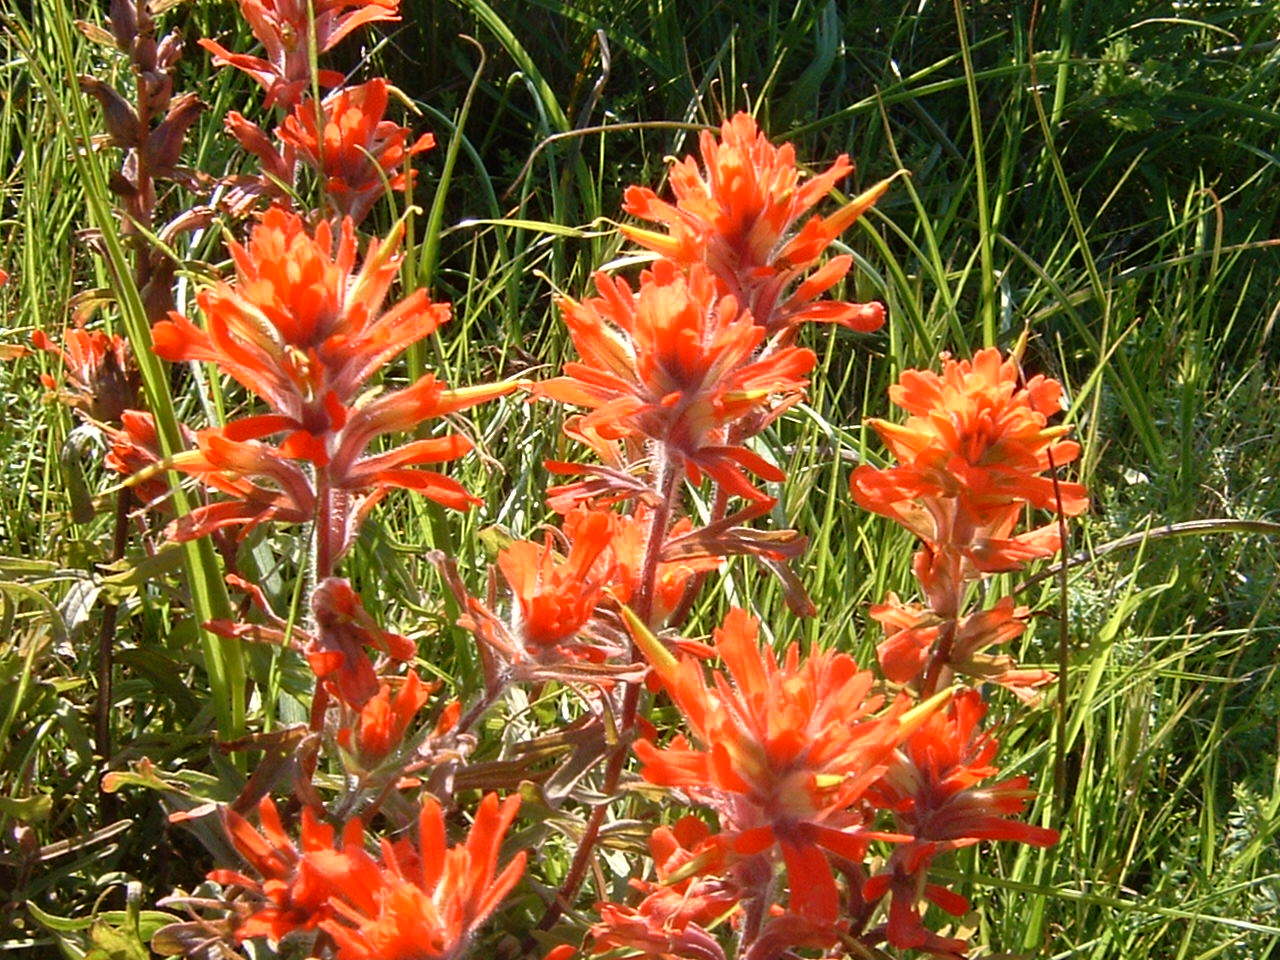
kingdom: Plantae
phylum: Tracheophyta
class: Magnoliopsida
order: Lamiales
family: Orobanchaceae
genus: Castilleja
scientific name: Castilleja affinis
